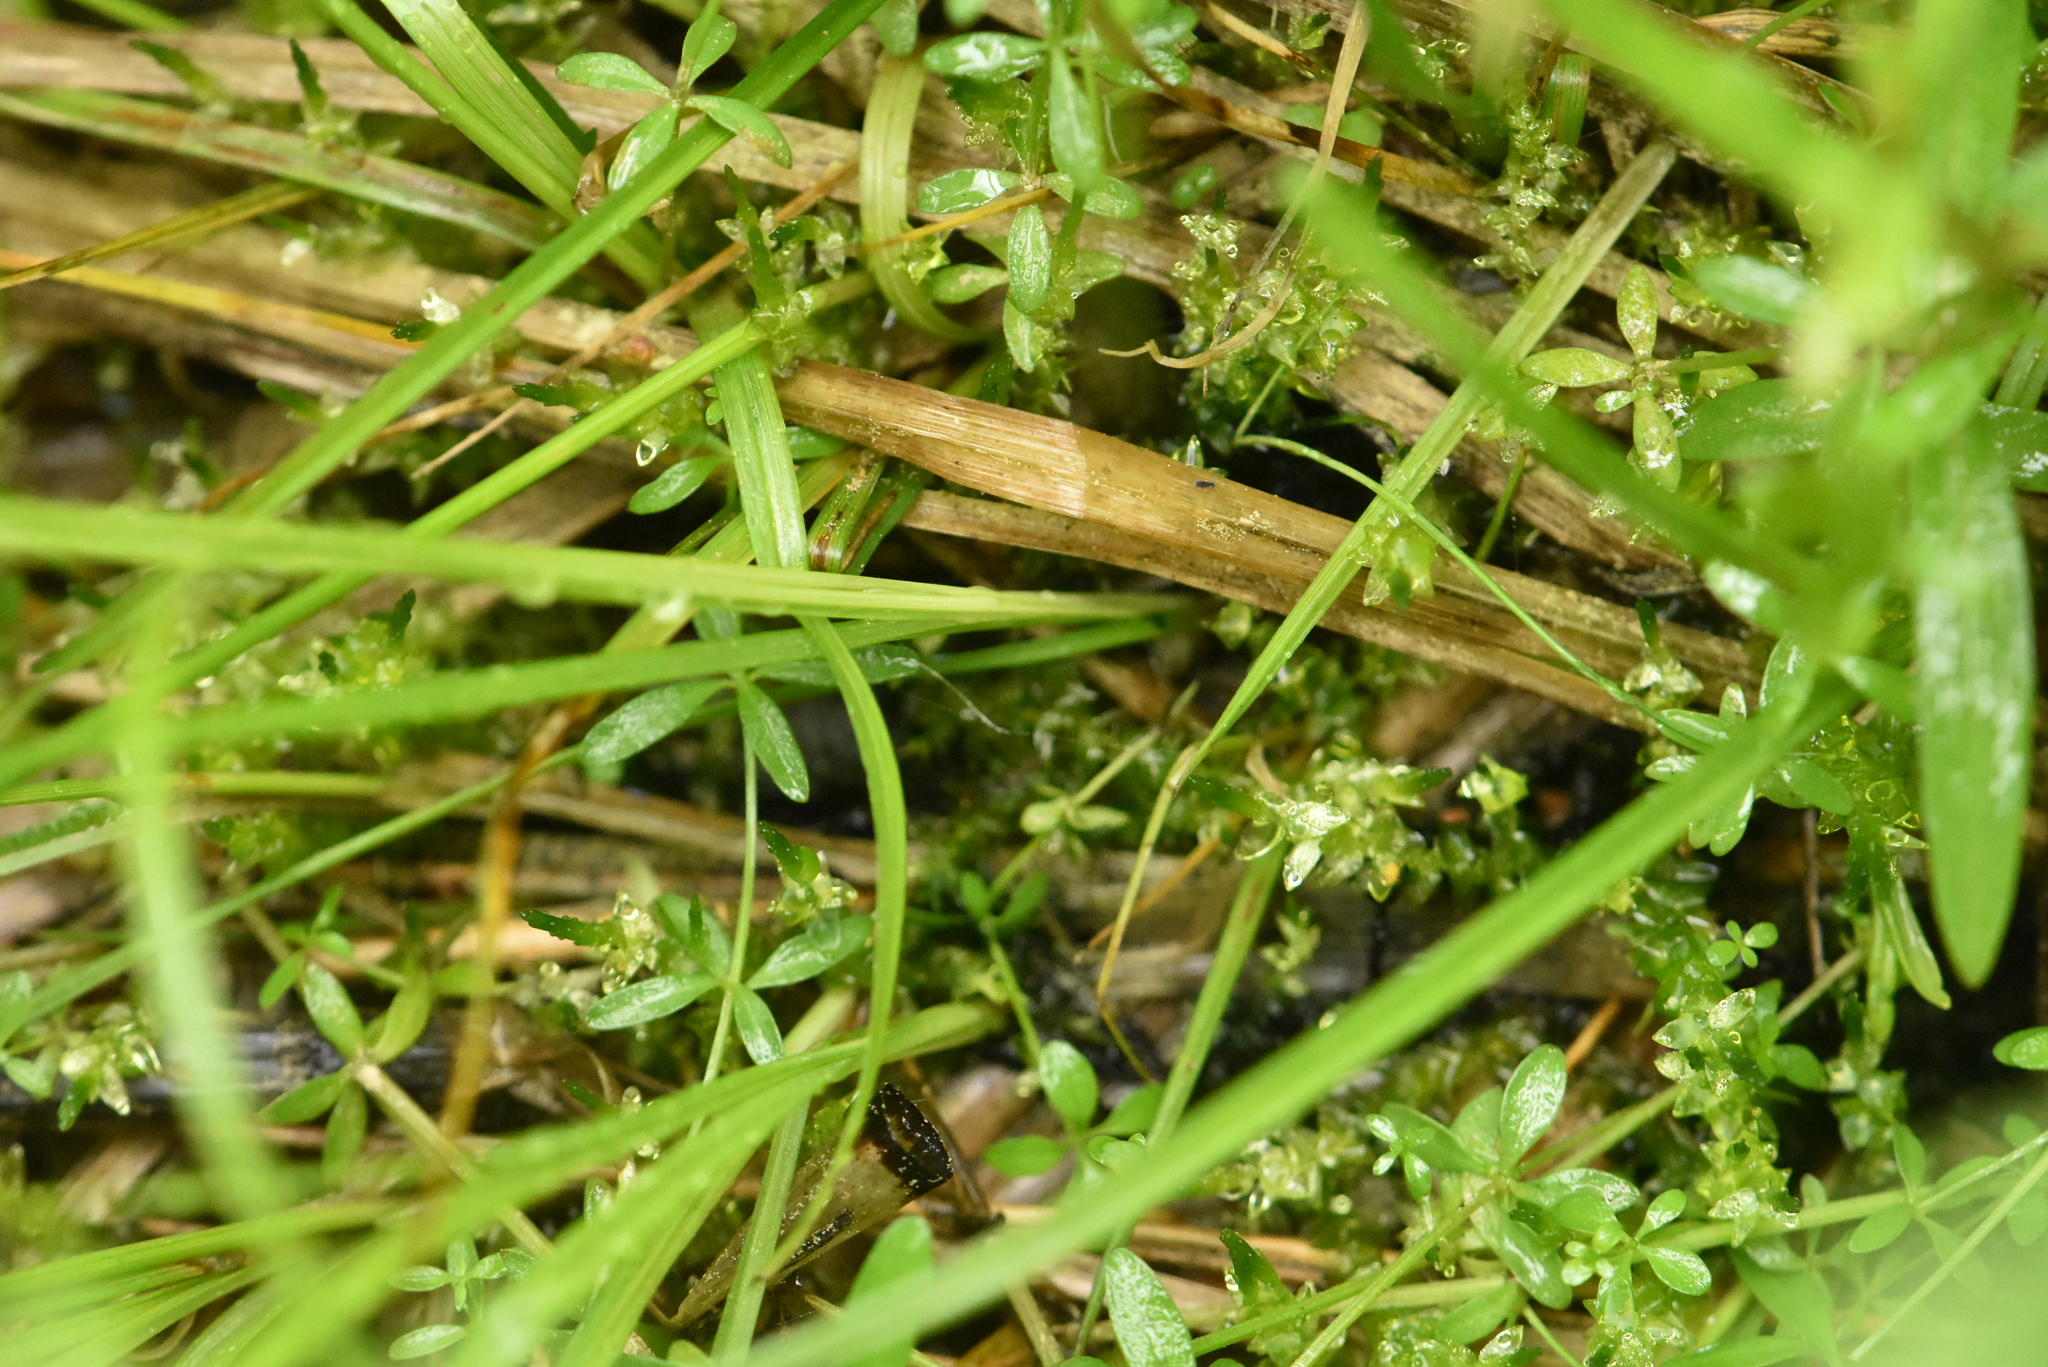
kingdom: Plantae
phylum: Tracheophyta
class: Liliopsida
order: Poales
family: Cyperaceae
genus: Carex
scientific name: Carex elongata
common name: Elongated sedge
